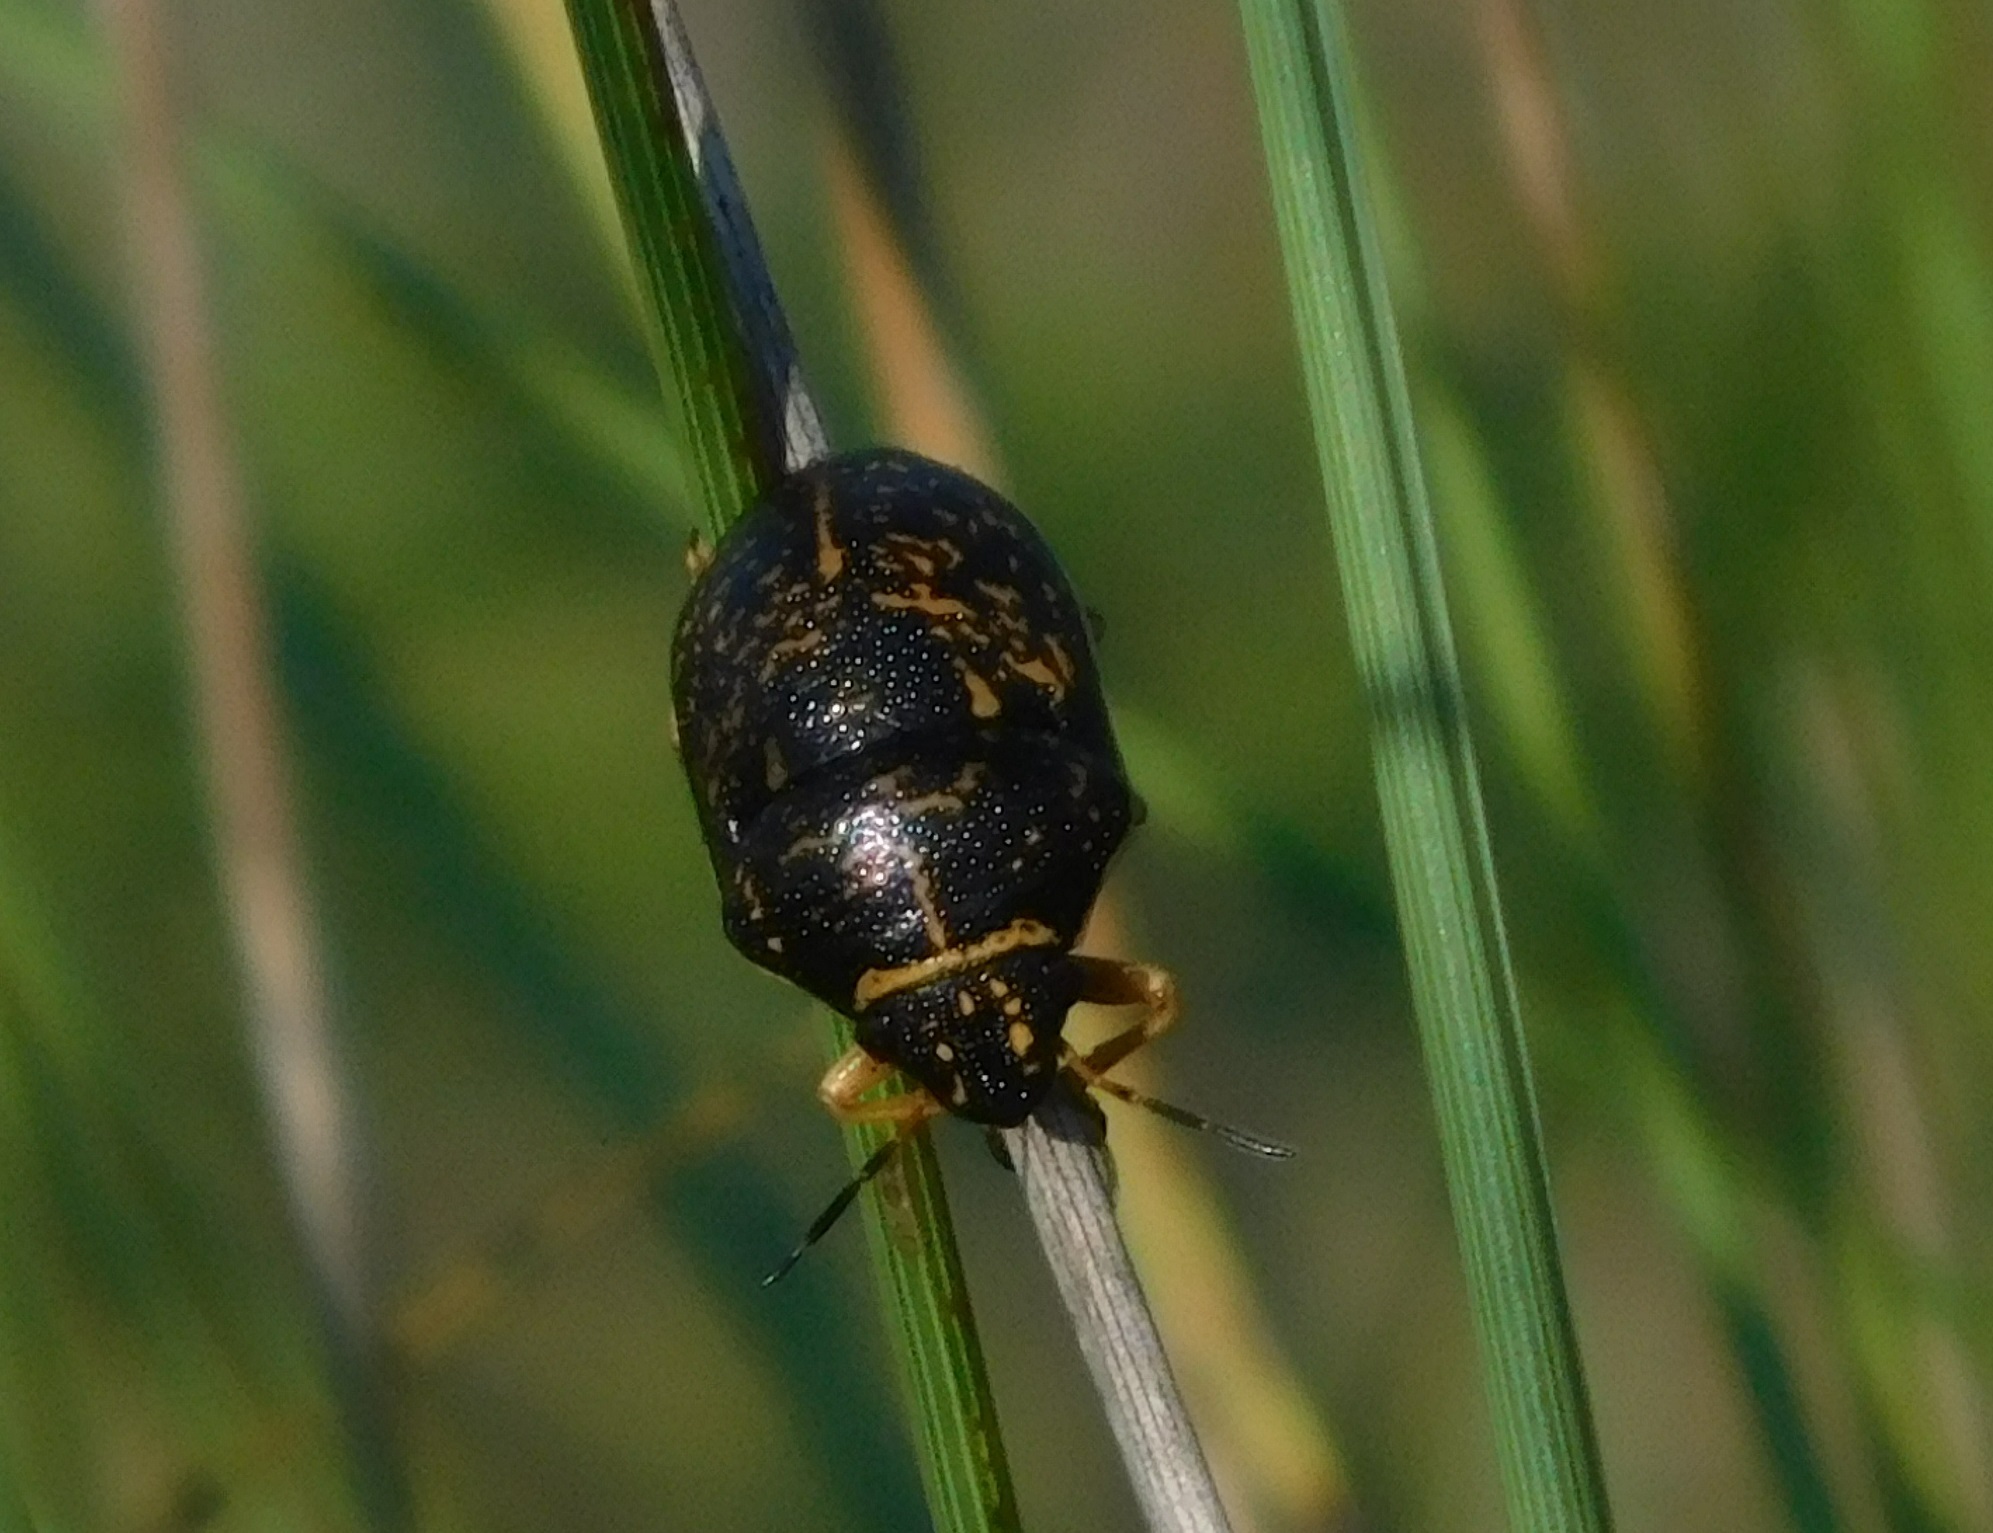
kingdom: Animalia
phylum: Arthropoda
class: Insecta
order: Hemiptera
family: Scutelleridae
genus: Orsilochides
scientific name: Orsilochides guttata
